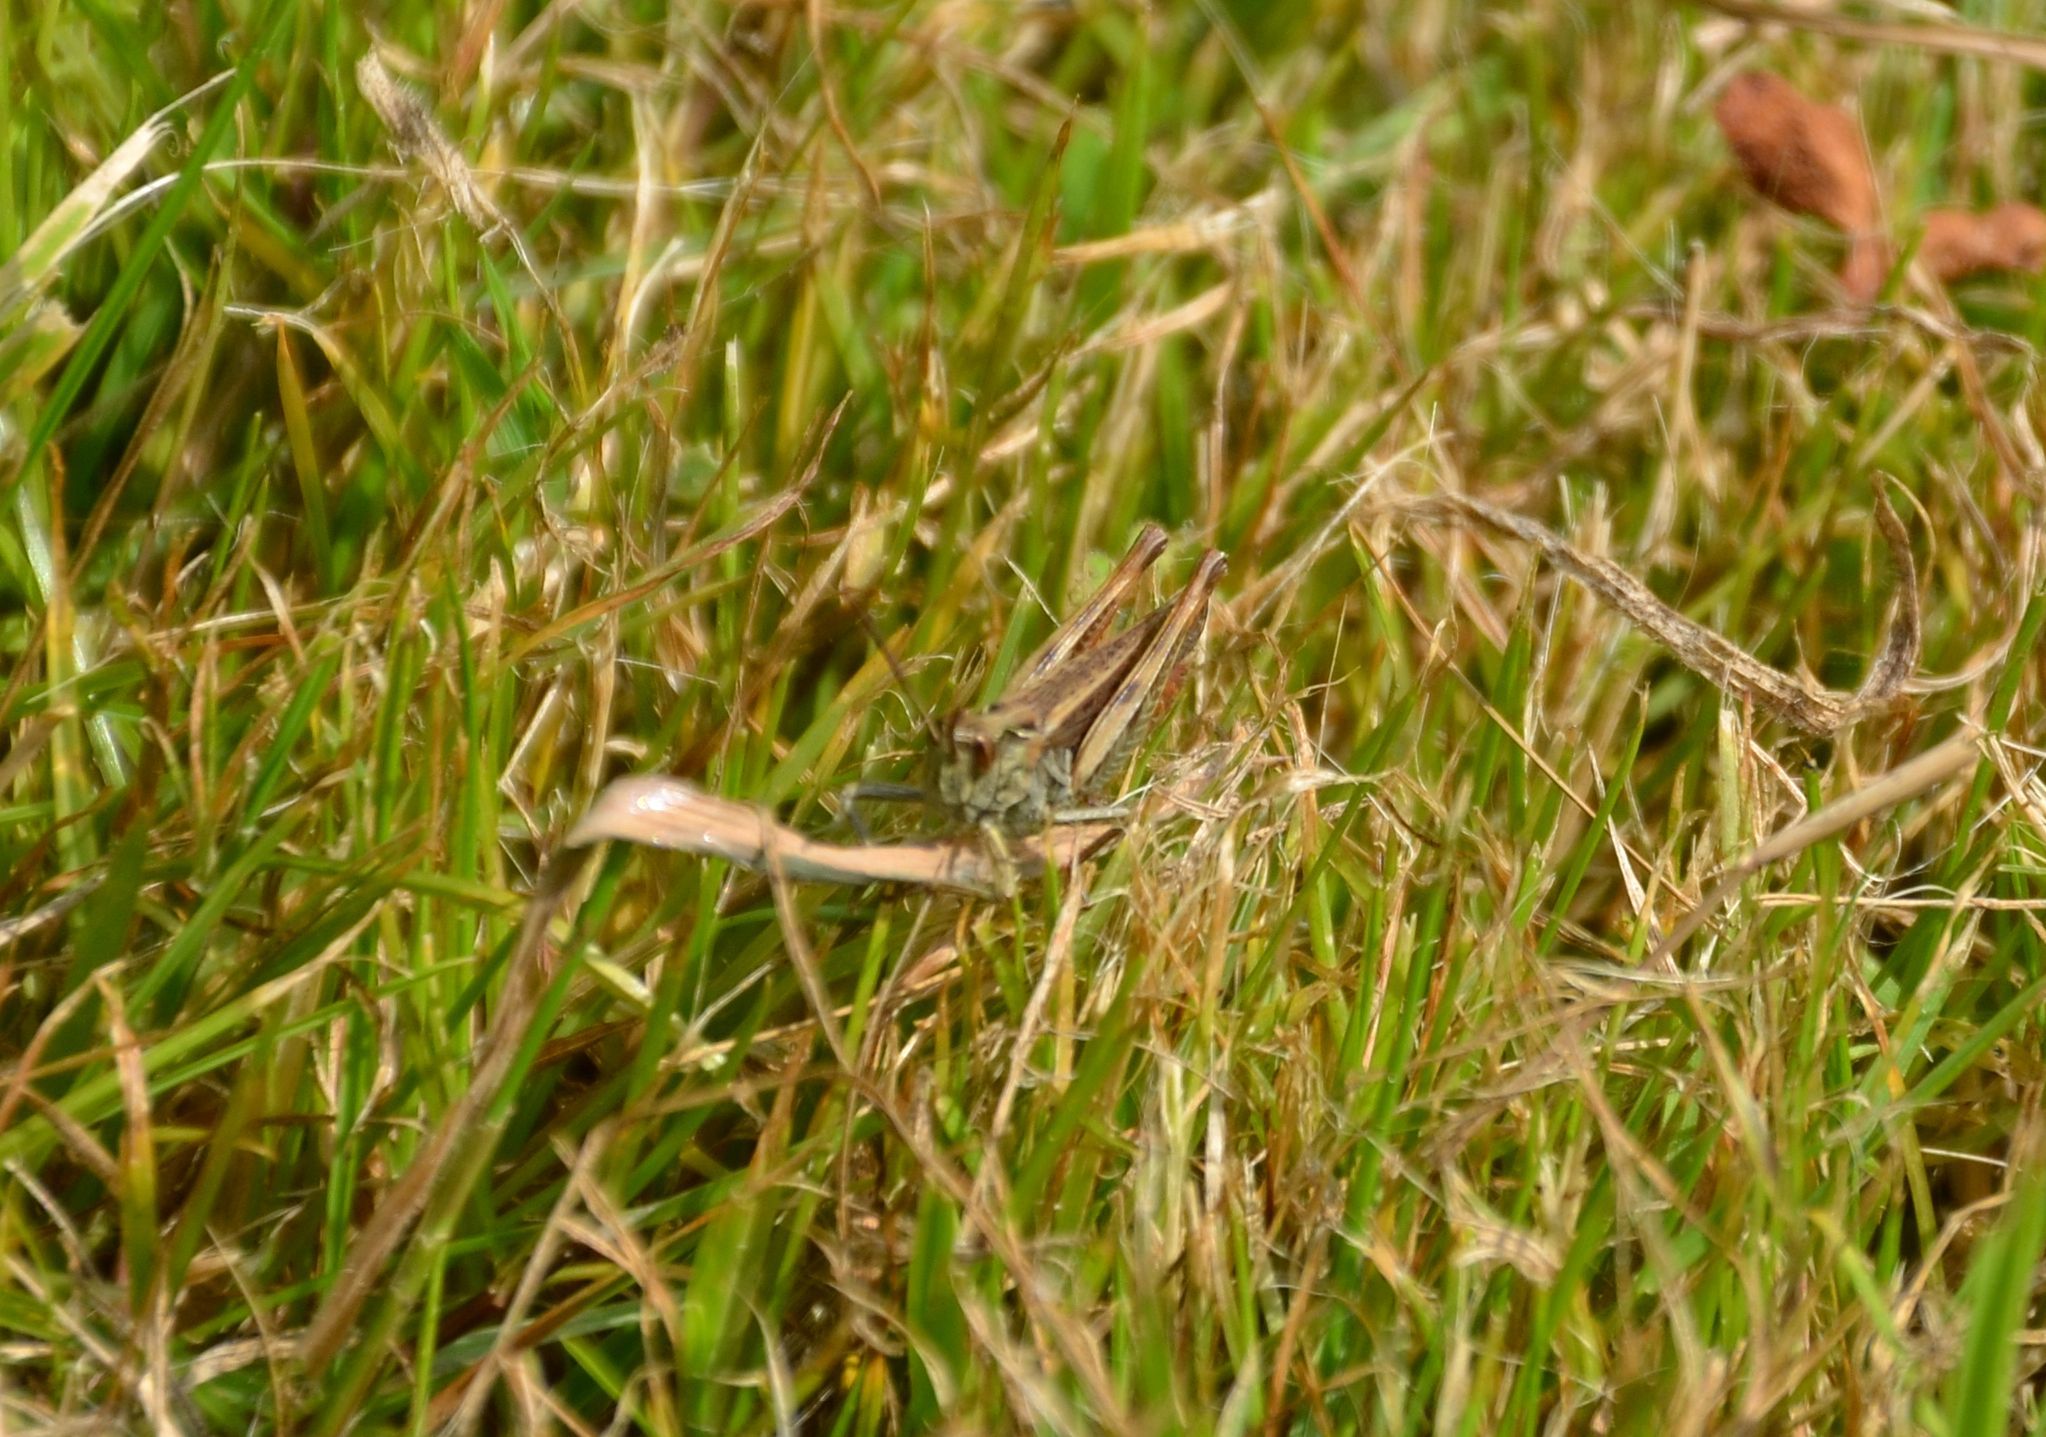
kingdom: Animalia
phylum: Arthropoda
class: Insecta
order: Orthoptera
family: Acrididae
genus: Chorthippus
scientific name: Chorthippus biguttulus
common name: Bow-winged grasshopper
